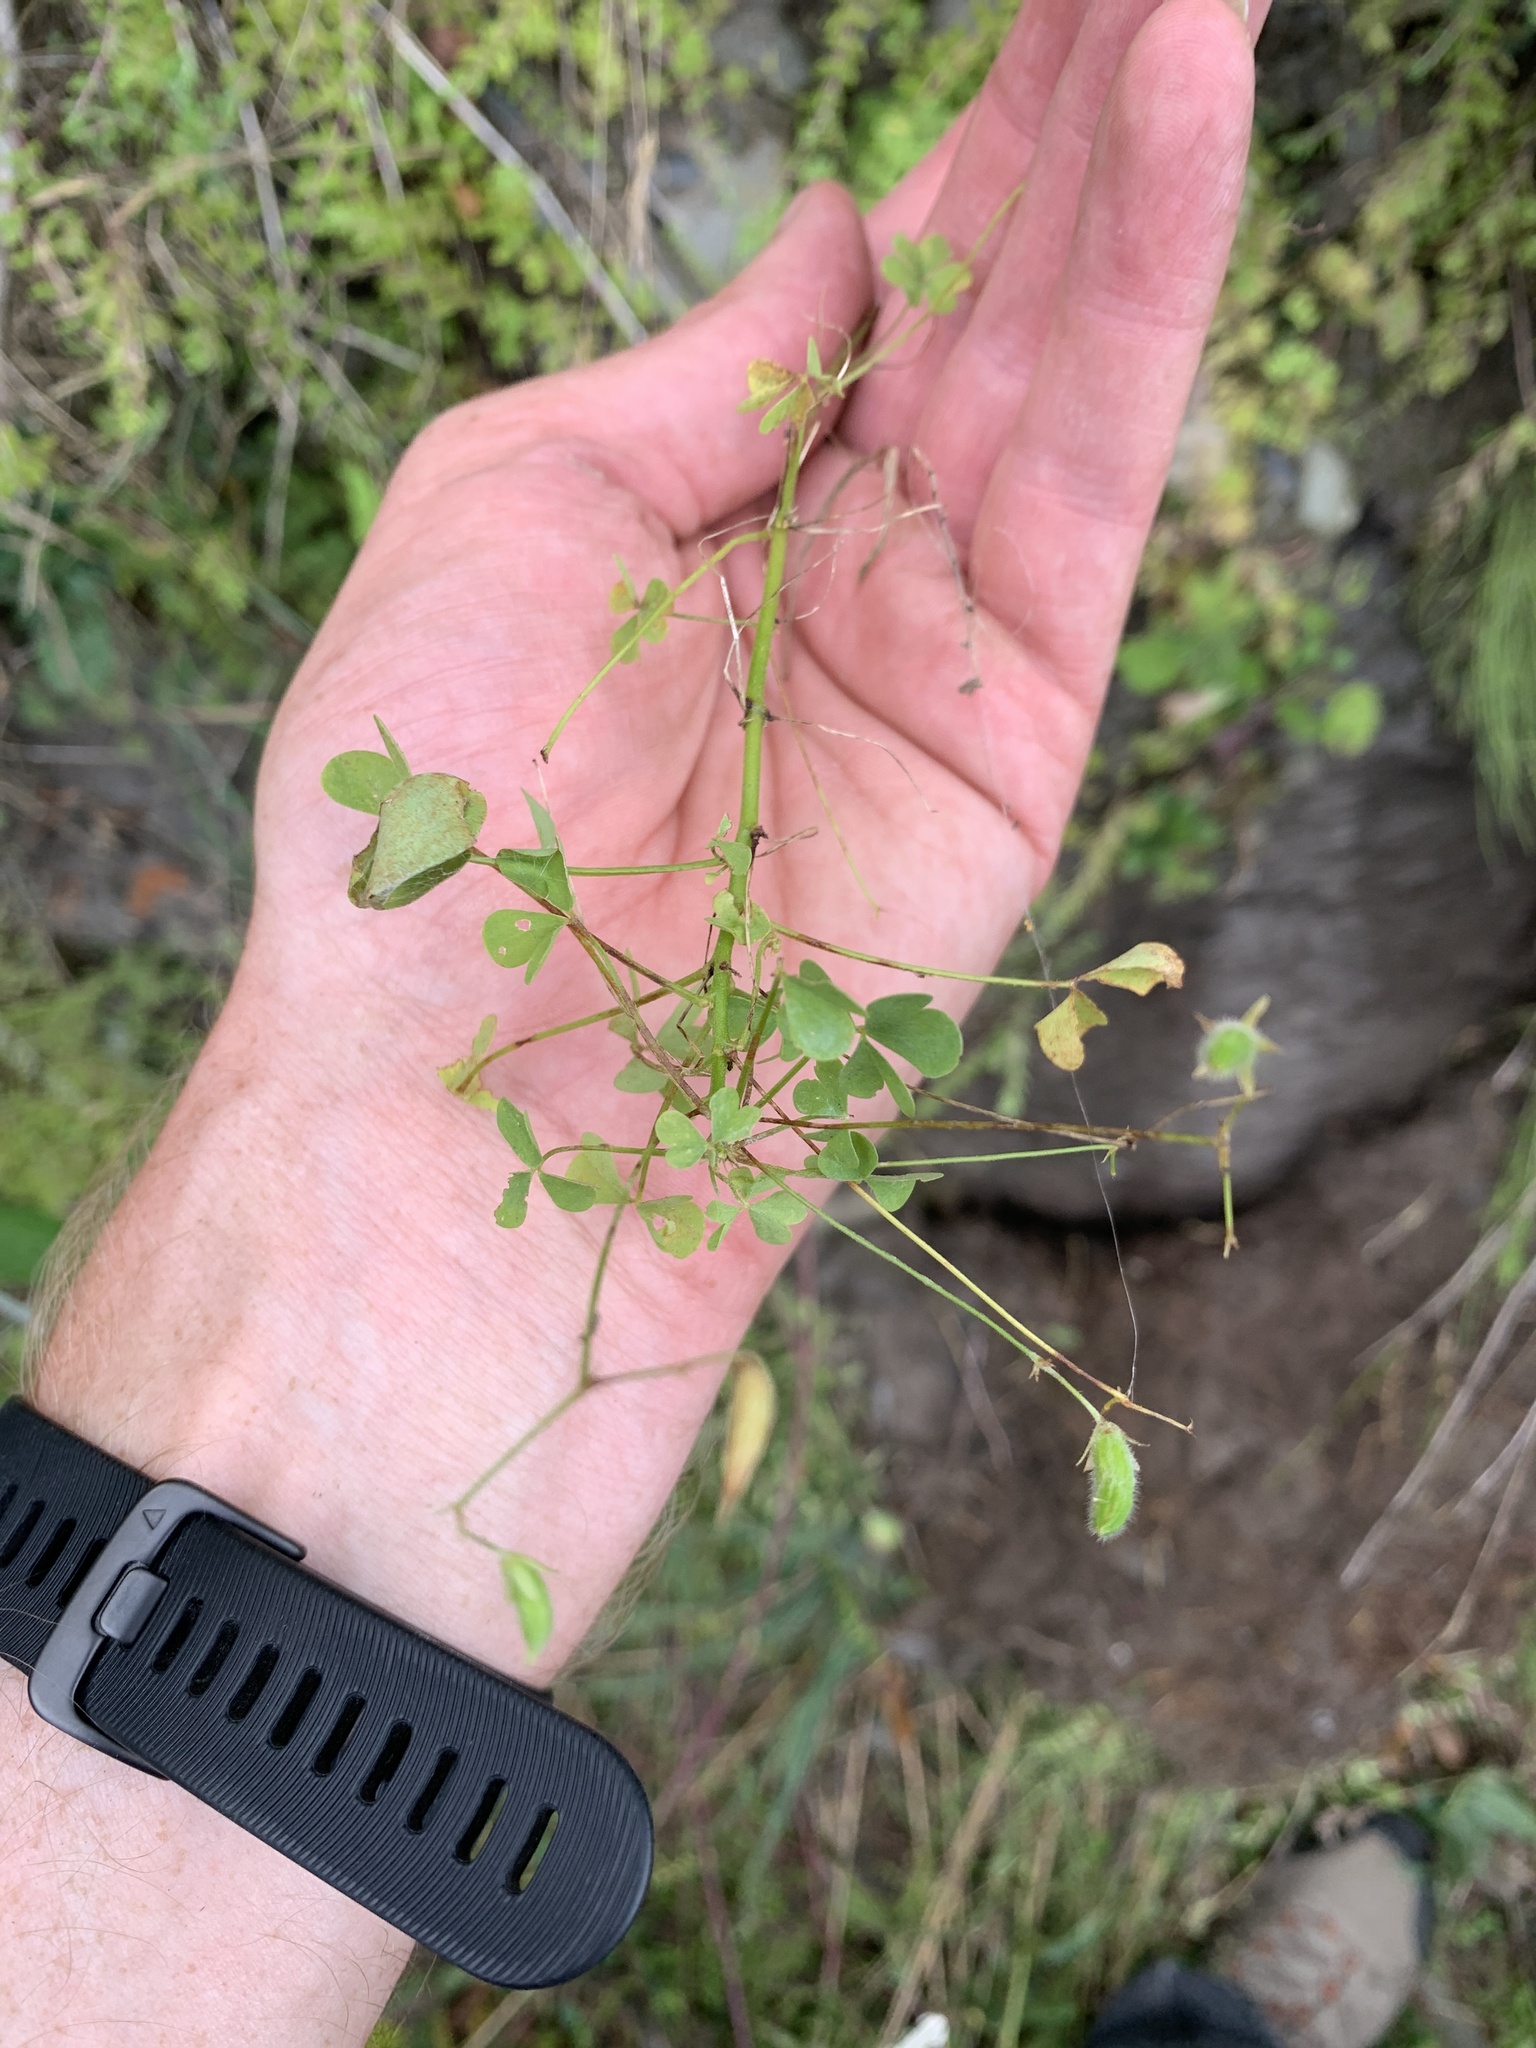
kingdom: Plantae
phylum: Tracheophyta
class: Magnoliopsida
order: Oxalidales
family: Oxalidaceae
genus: Oxalis
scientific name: Oxalis stricta
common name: Upright yellow-sorrel
